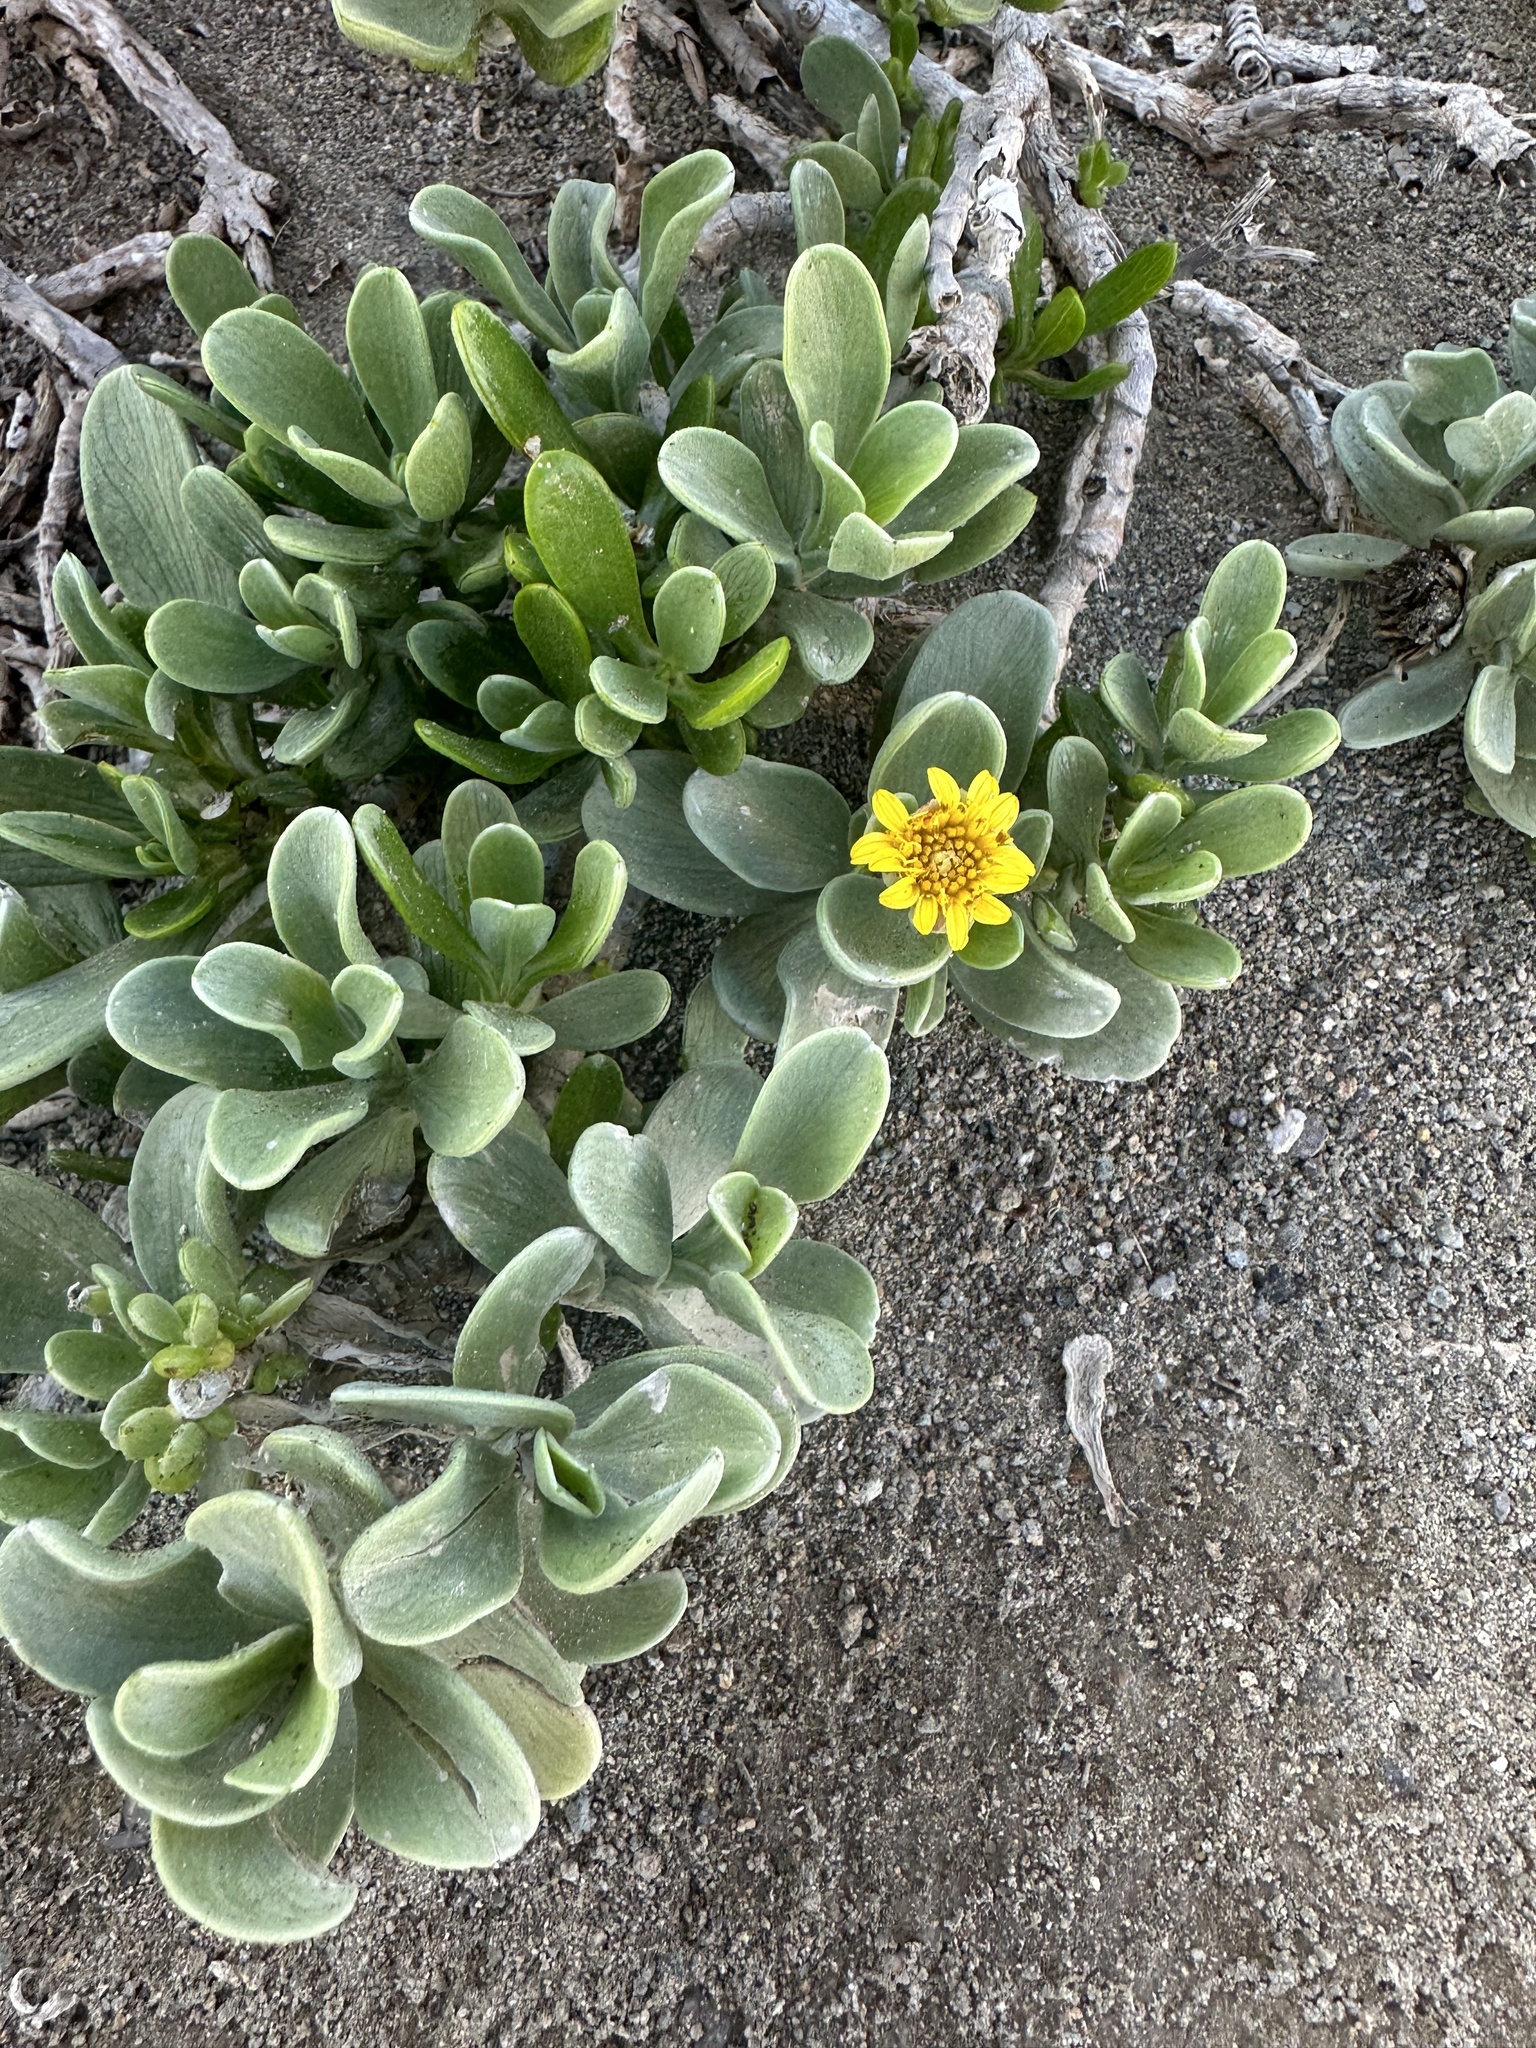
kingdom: Plantae
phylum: Tracheophyta
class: Magnoliopsida
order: Asterales
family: Asteraceae
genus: Borrichia
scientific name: Borrichia arborescens
